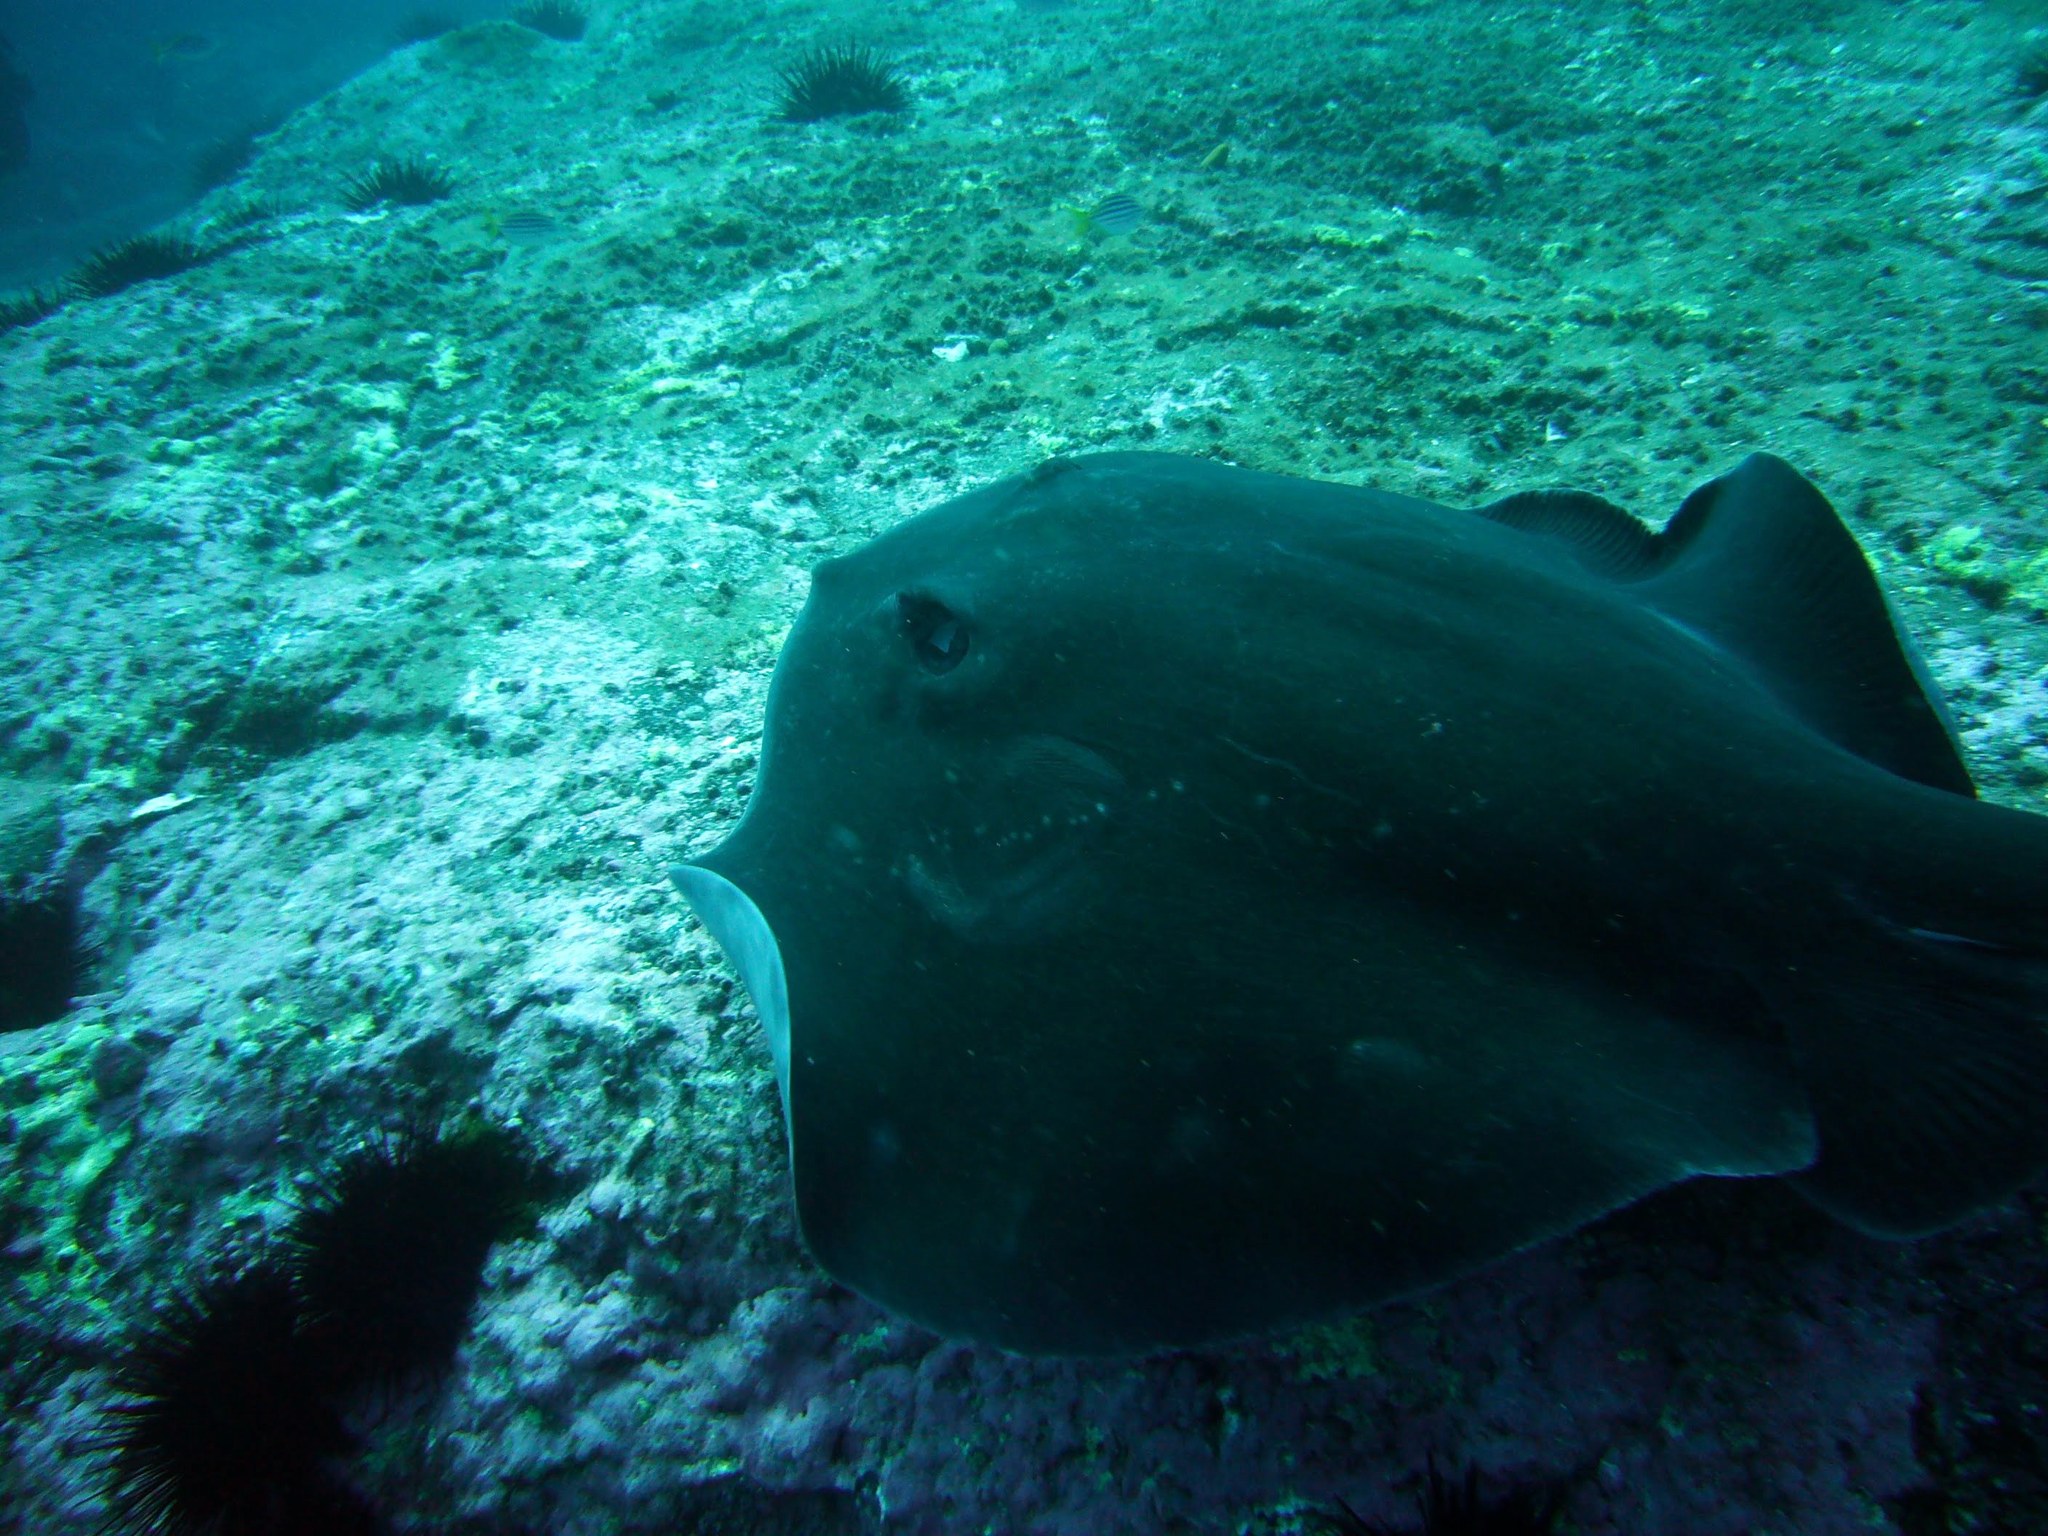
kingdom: Animalia
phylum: Chordata
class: Elasmobranchii
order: Myliobatiformes
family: Dasyatidae
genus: Bathytoshia
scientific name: Bathytoshia brevicaudata
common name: Short-tail stingray
